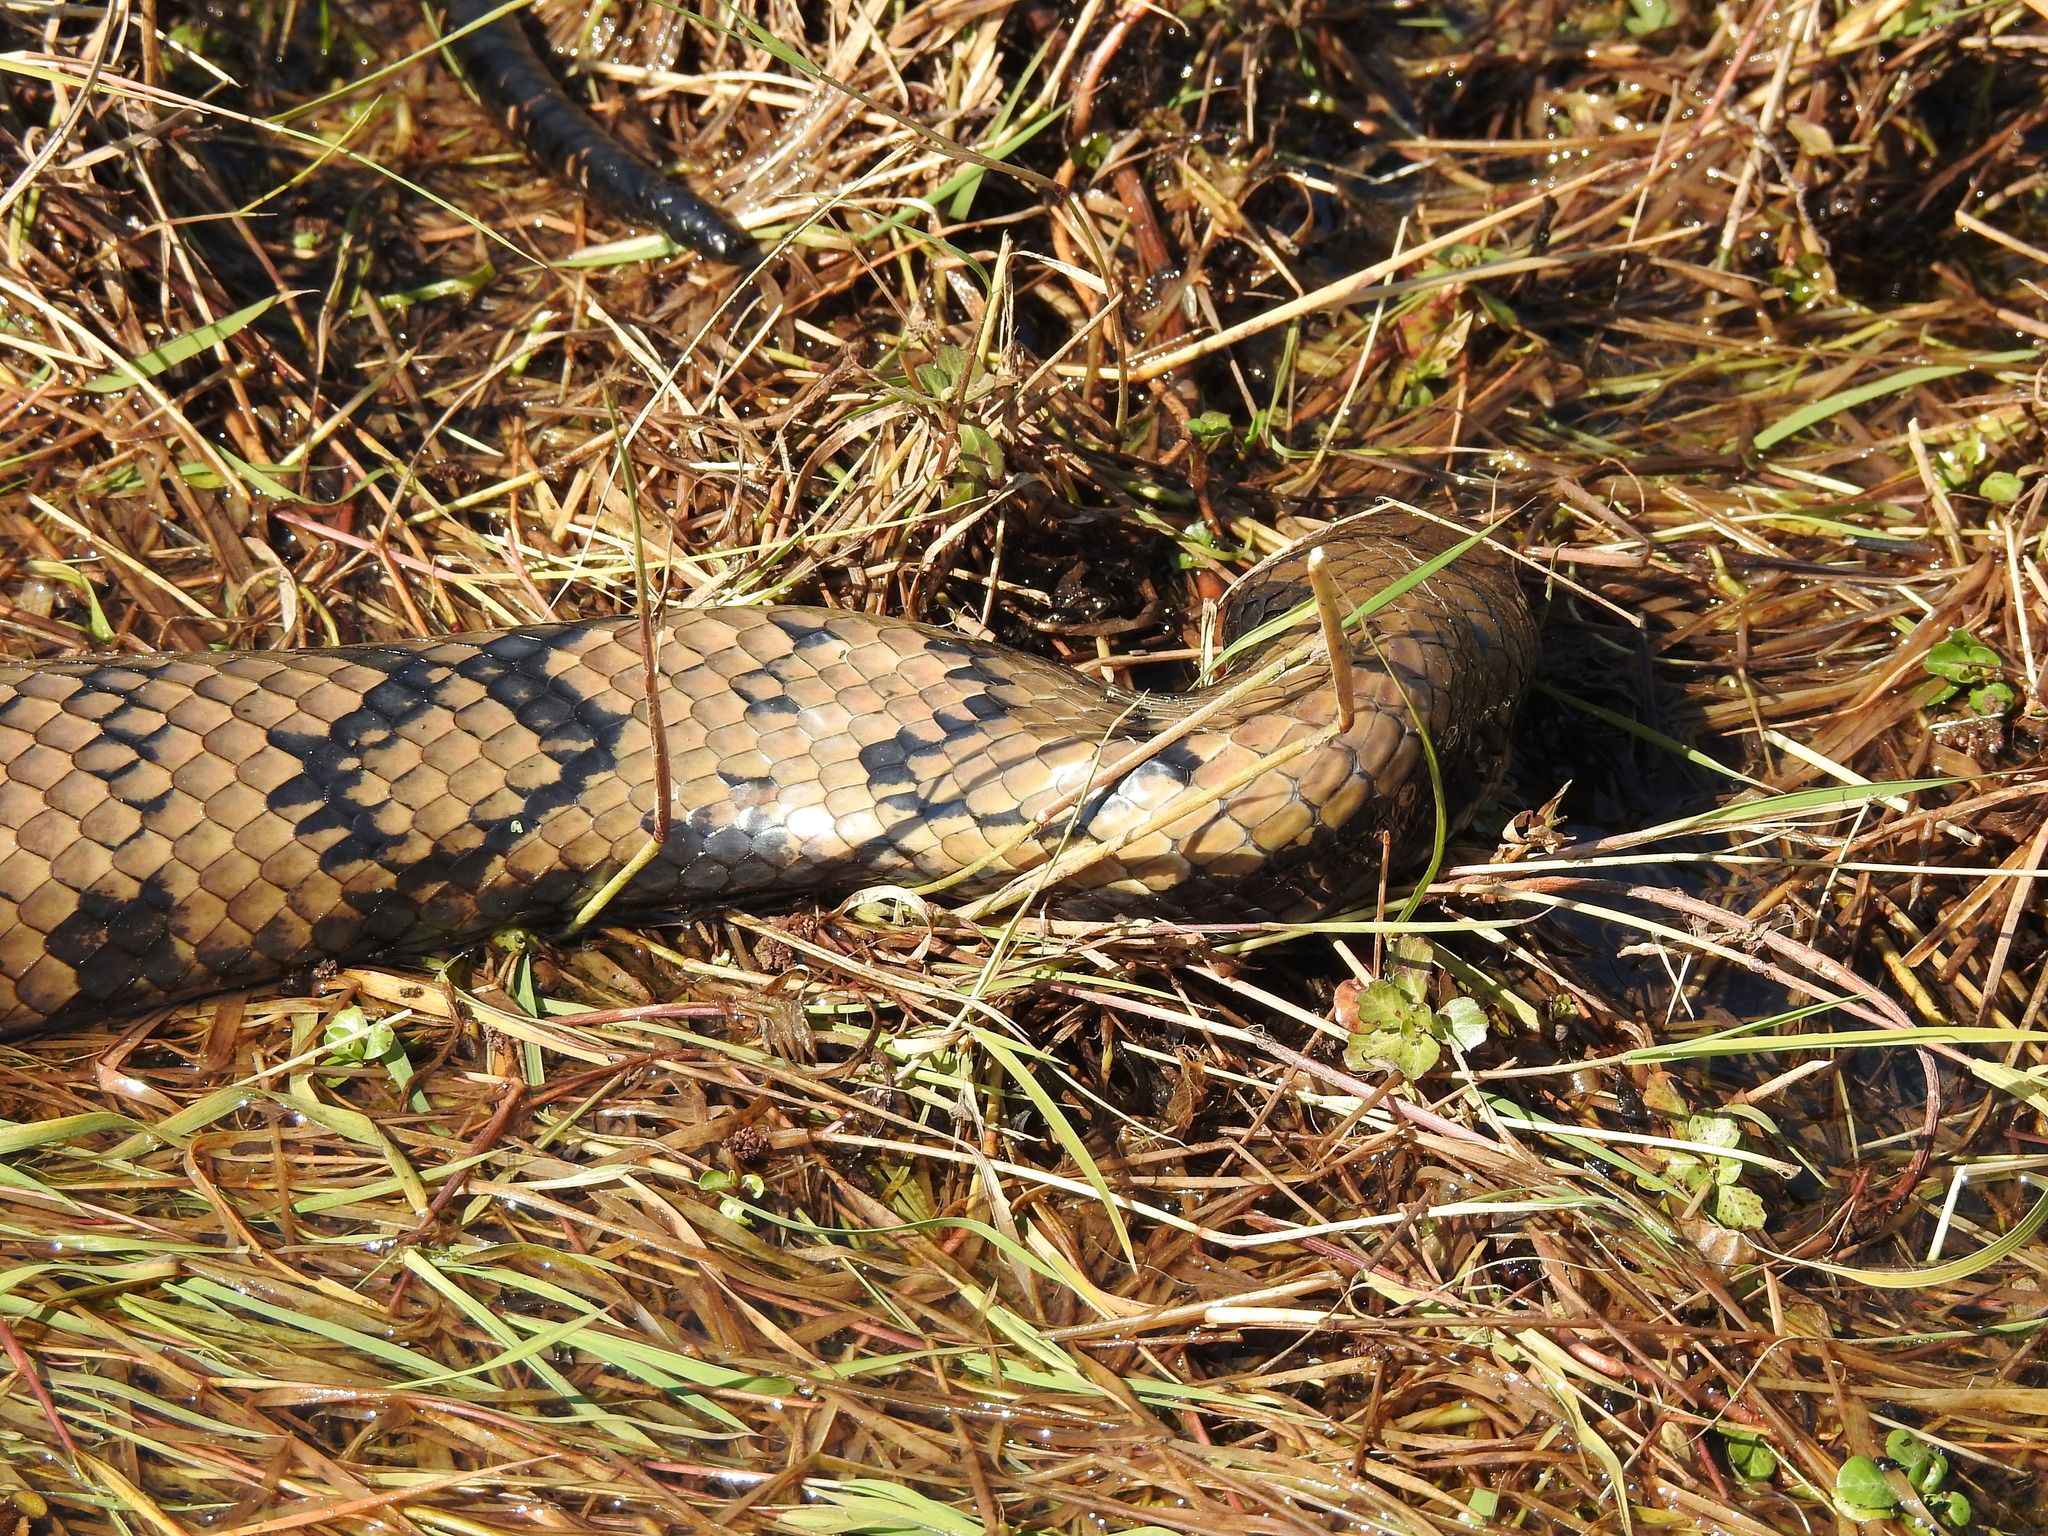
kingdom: Animalia
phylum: Chordata
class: Squamata
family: Colubridae
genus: Hydrodynastes
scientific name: Hydrodynastes gigas
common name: False water cobra
